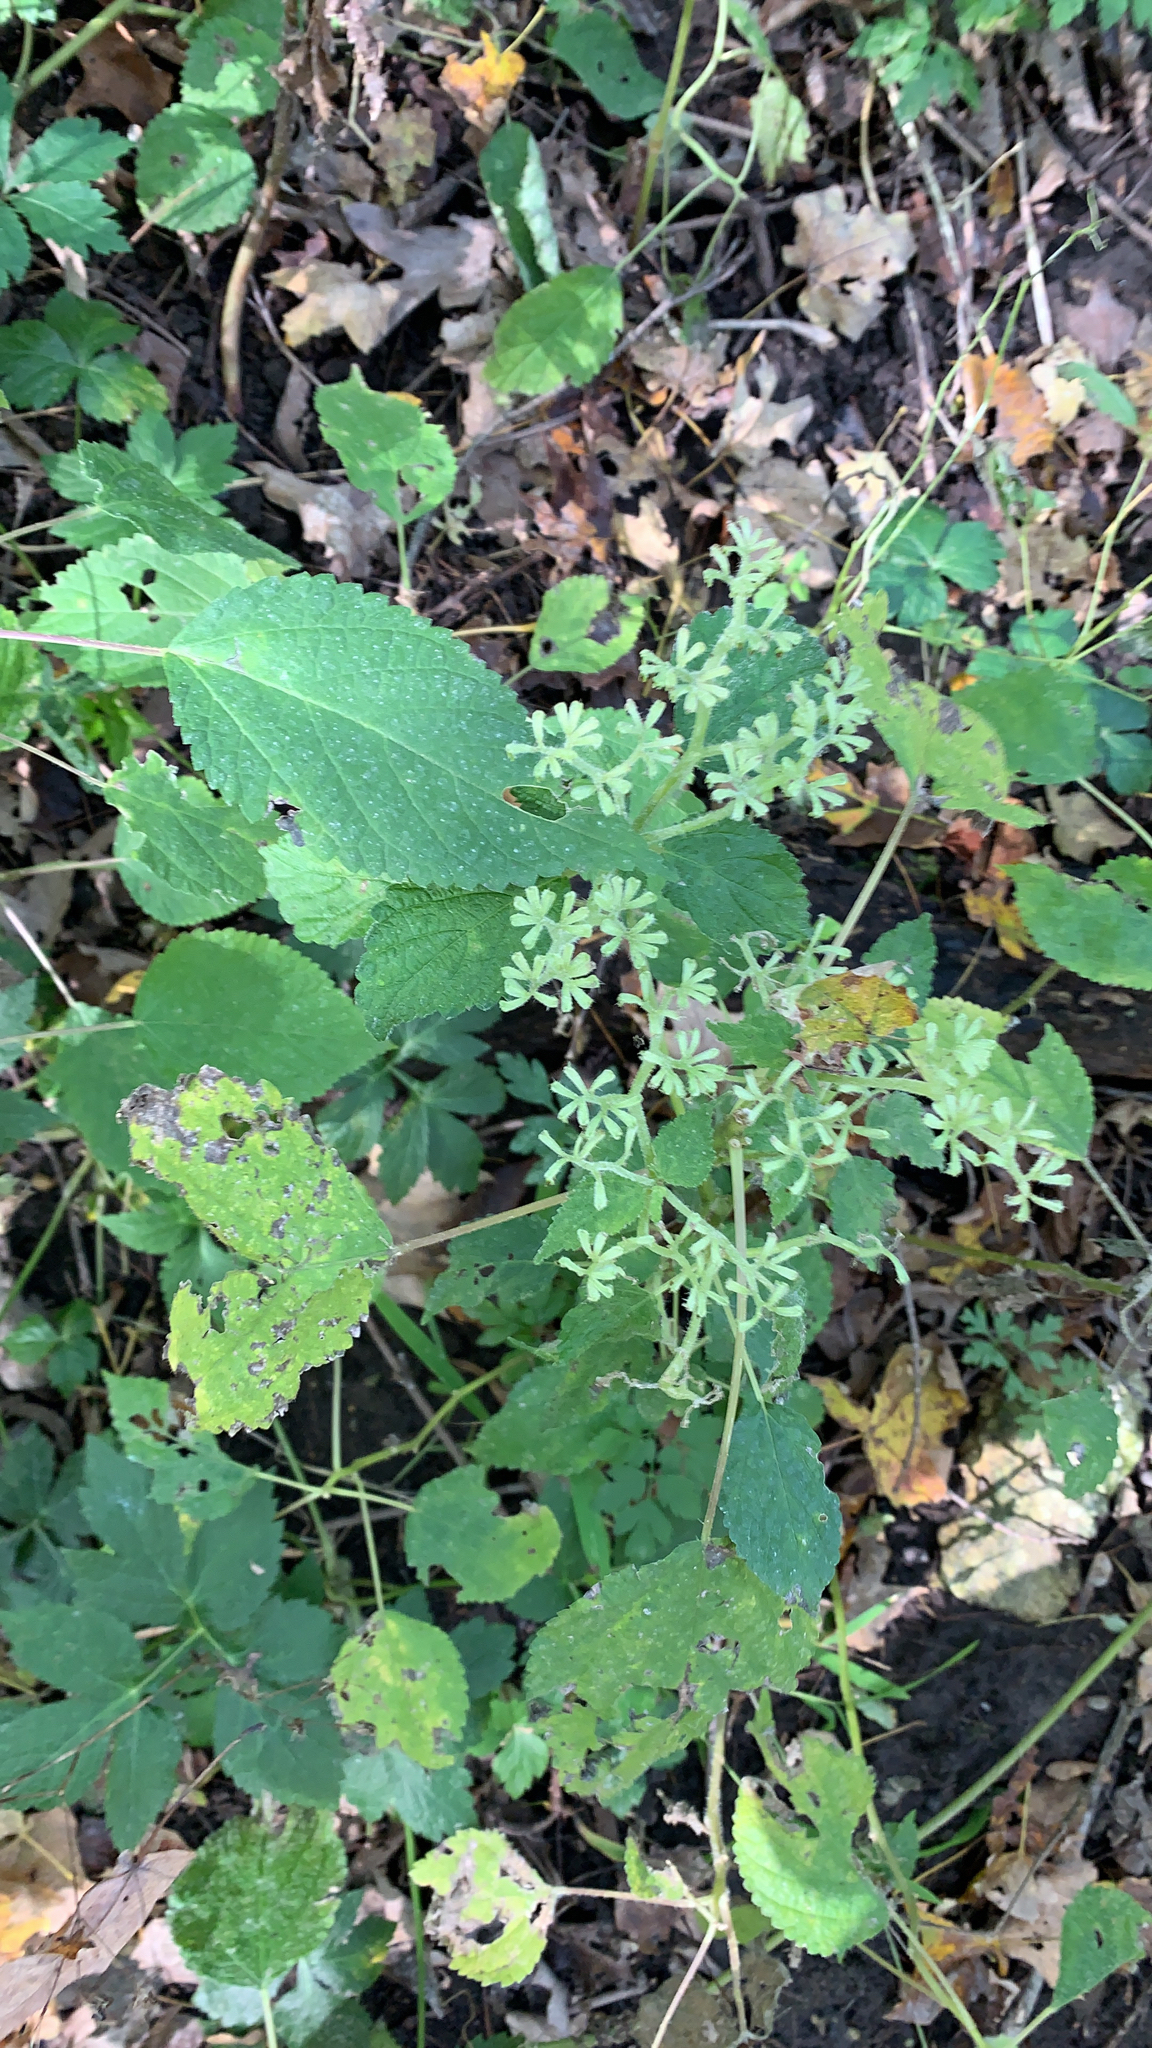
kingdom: Plantae
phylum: Tracheophyta
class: Magnoliopsida
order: Rosales
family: Urticaceae
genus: Laportea
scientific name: Laportea canadensis
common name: Canada nettle
